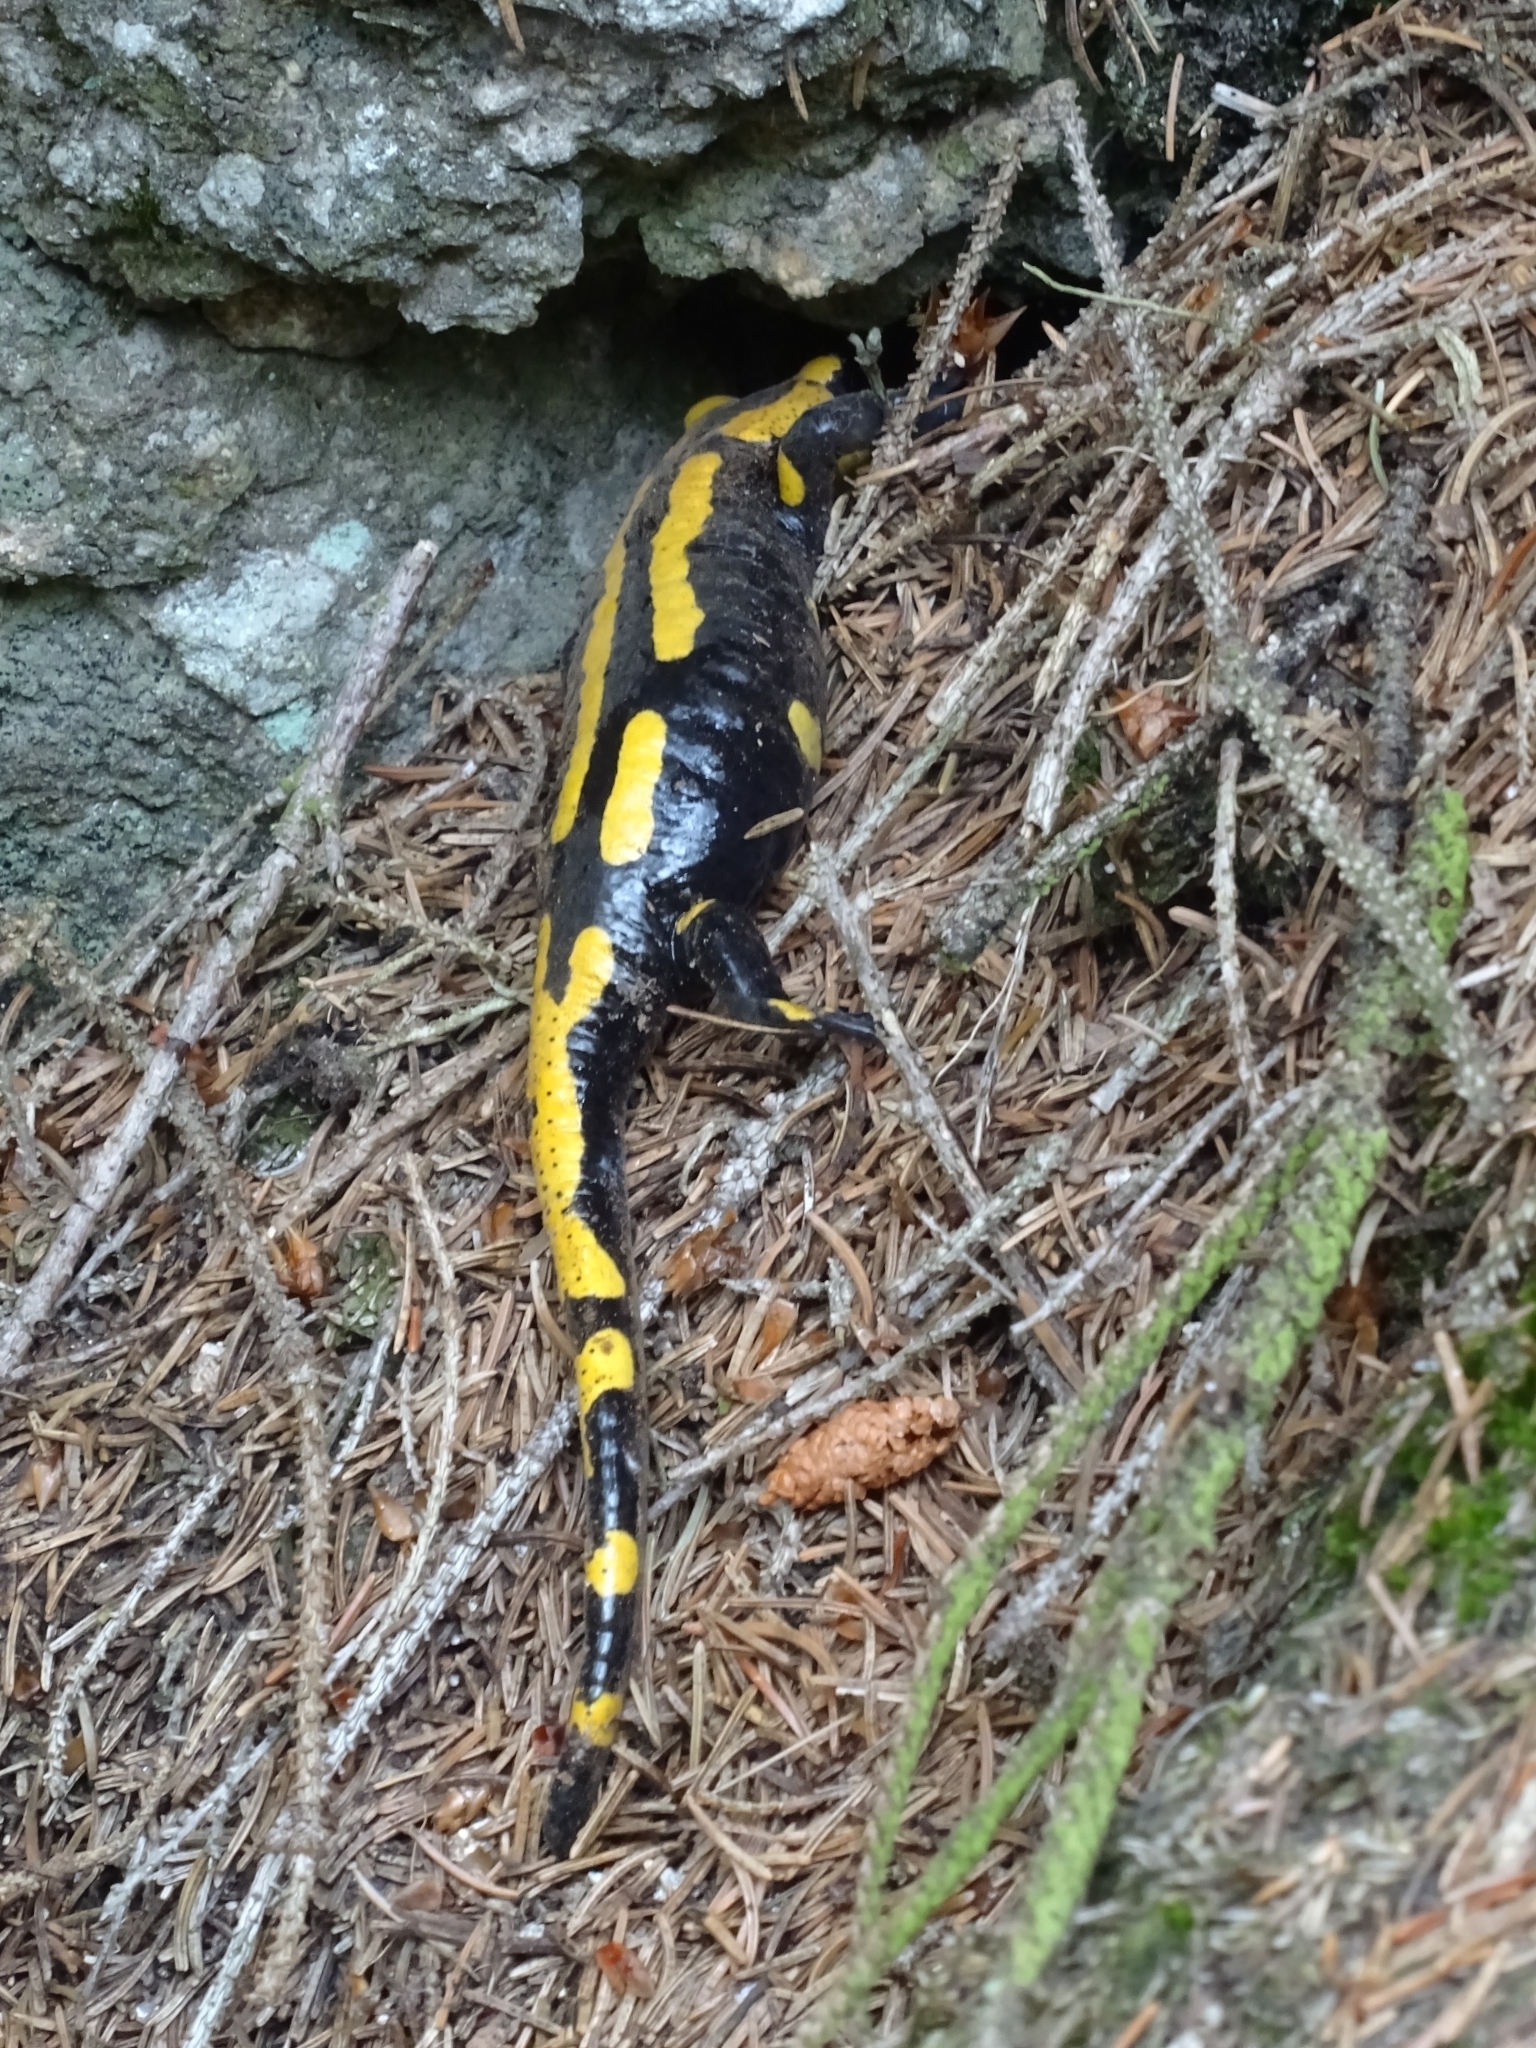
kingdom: Animalia
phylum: Chordata
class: Amphibia
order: Caudata
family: Salamandridae
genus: Salamandra
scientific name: Salamandra salamandra
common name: Fire salamander
